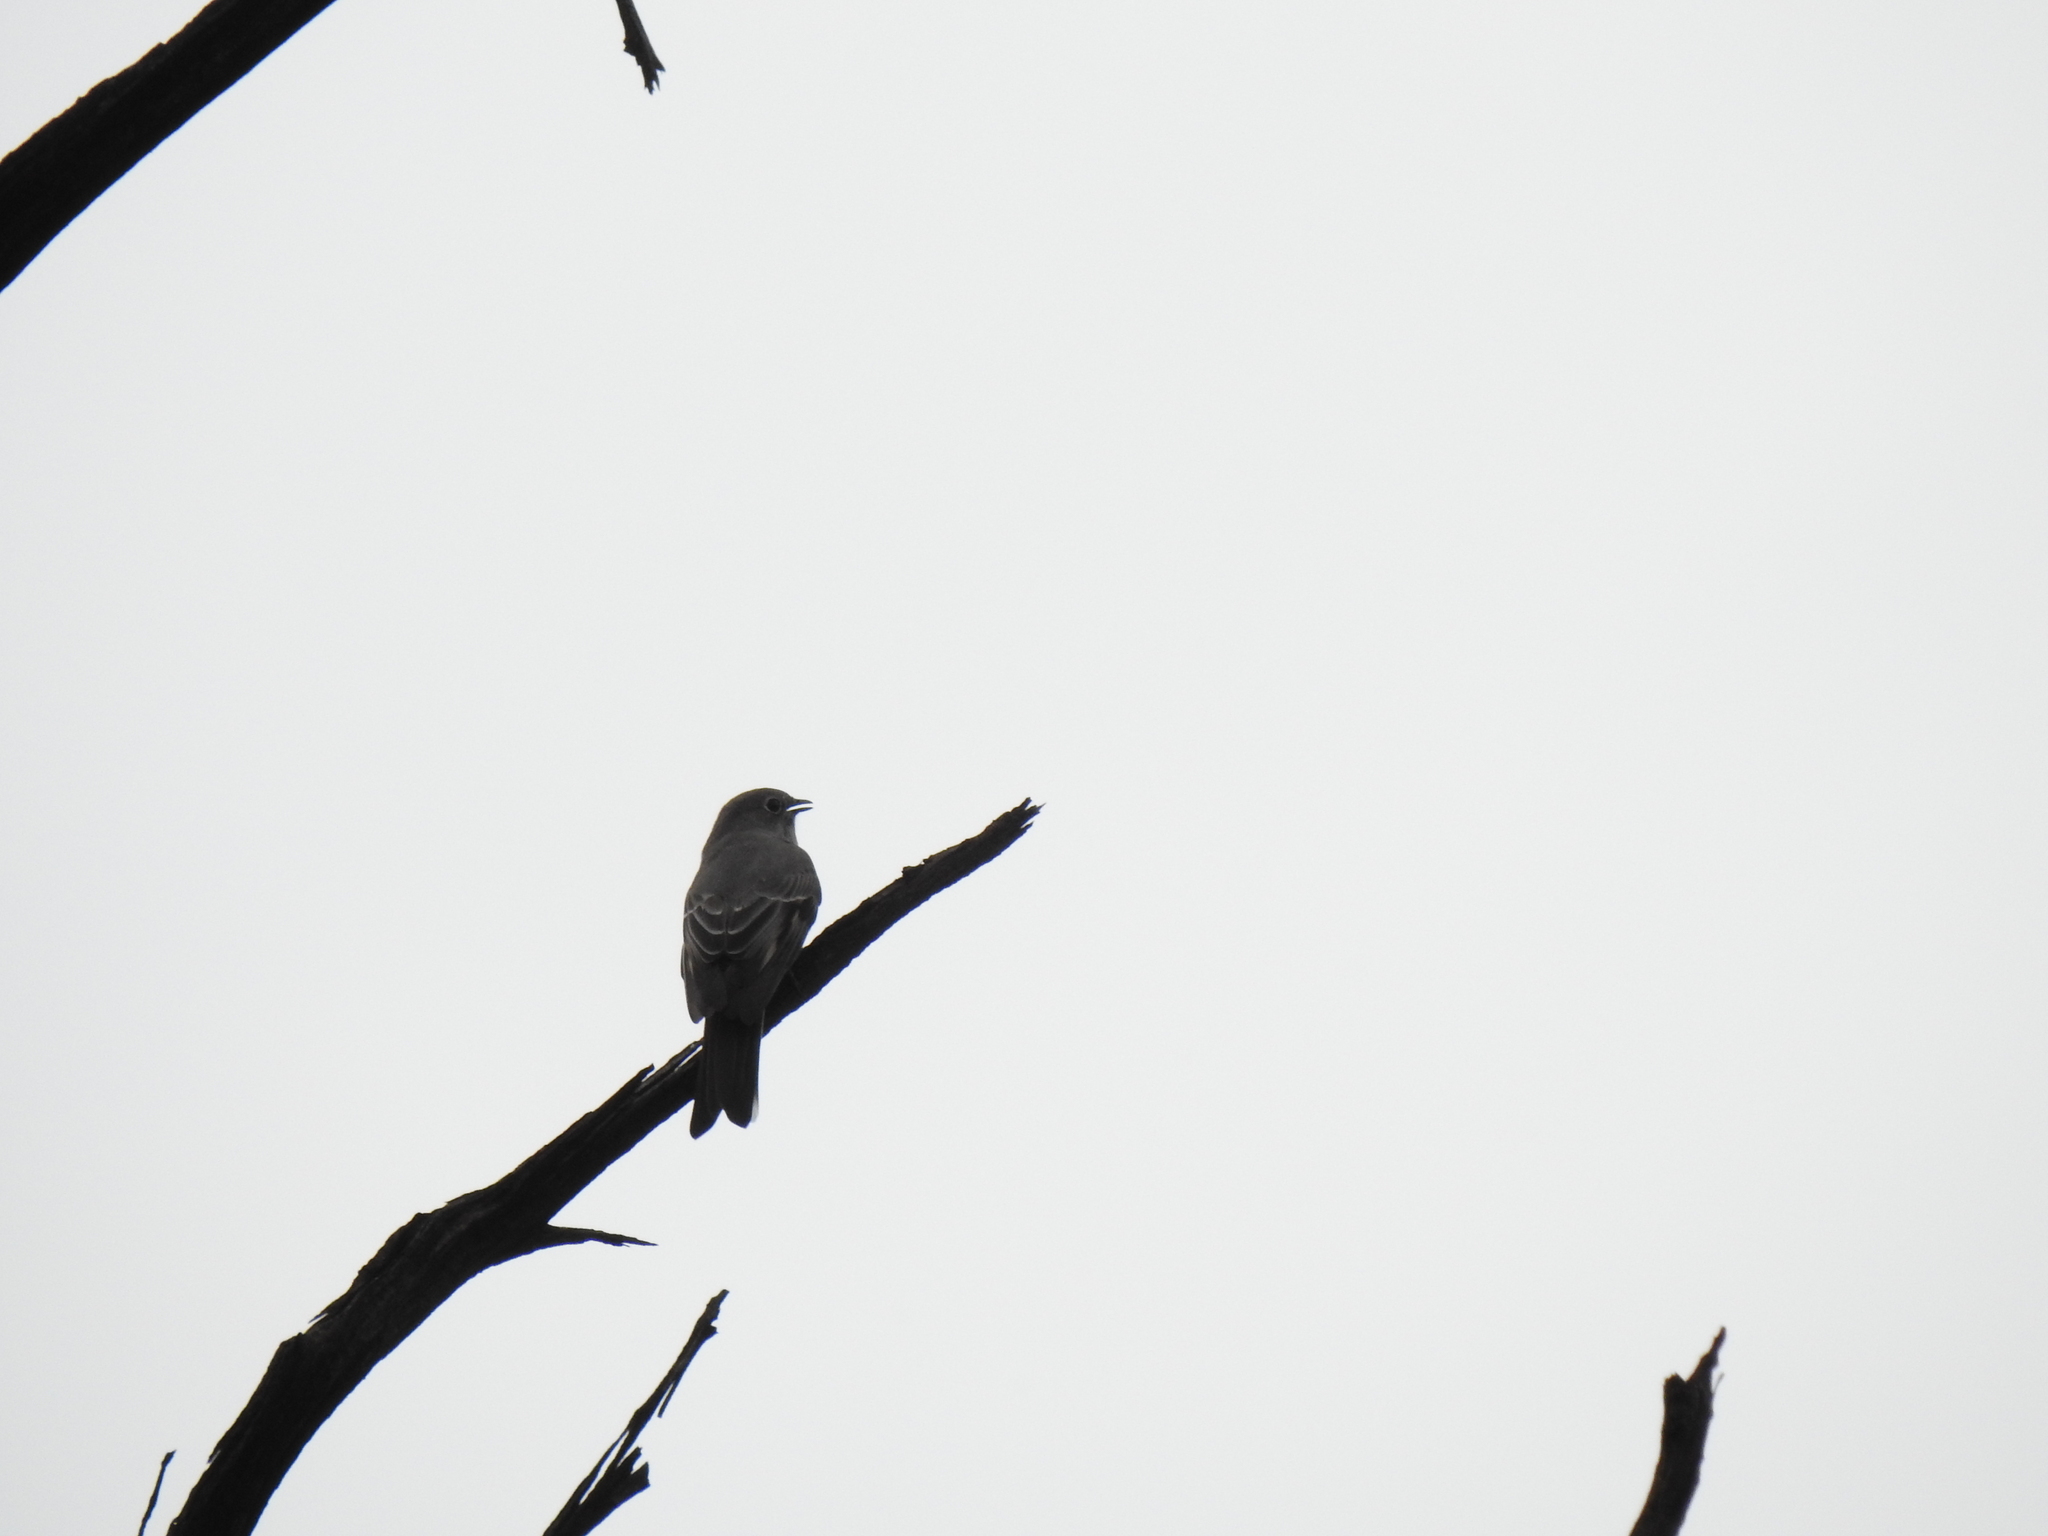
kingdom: Animalia
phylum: Chordata
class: Aves
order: Passeriformes
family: Turdidae
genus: Myadestes
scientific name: Myadestes townsendi
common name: Townsend's solitaire
